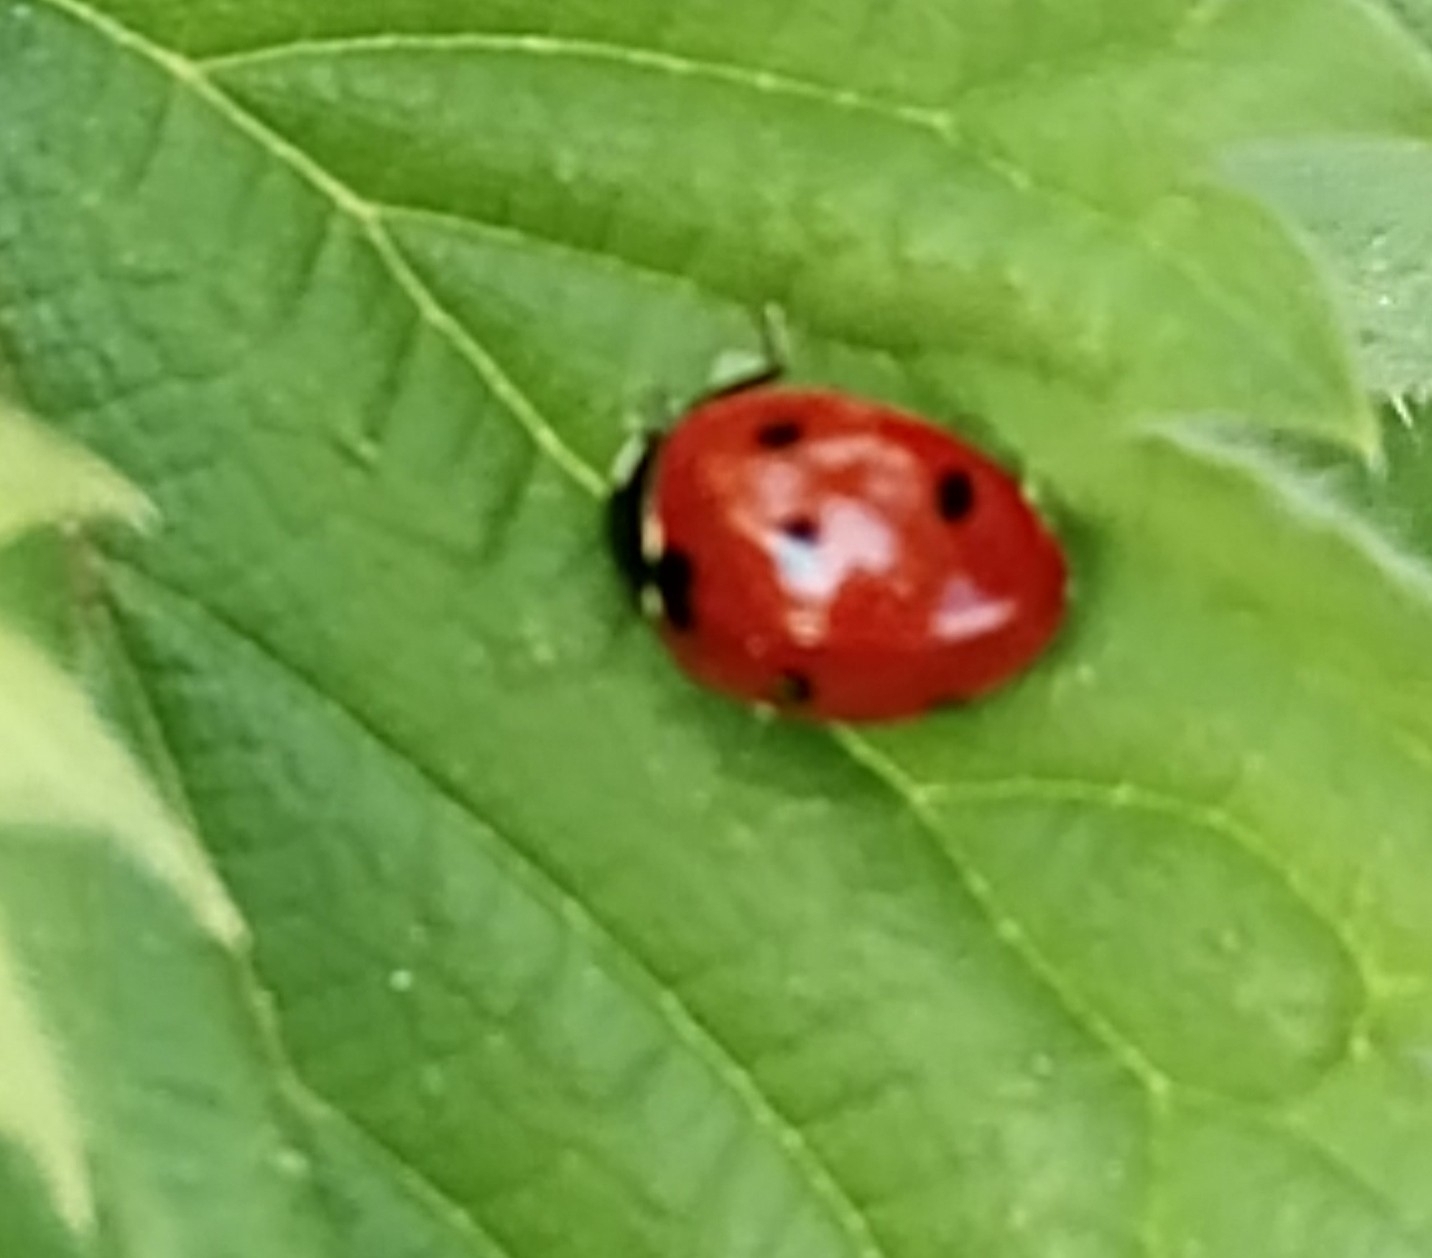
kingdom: Animalia
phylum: Arthropoda
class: Insecta
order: Coleoptera
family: Coccinellidae
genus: Coccinella
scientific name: Coccinella septempunctata
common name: Sevenspotted lady beetle
